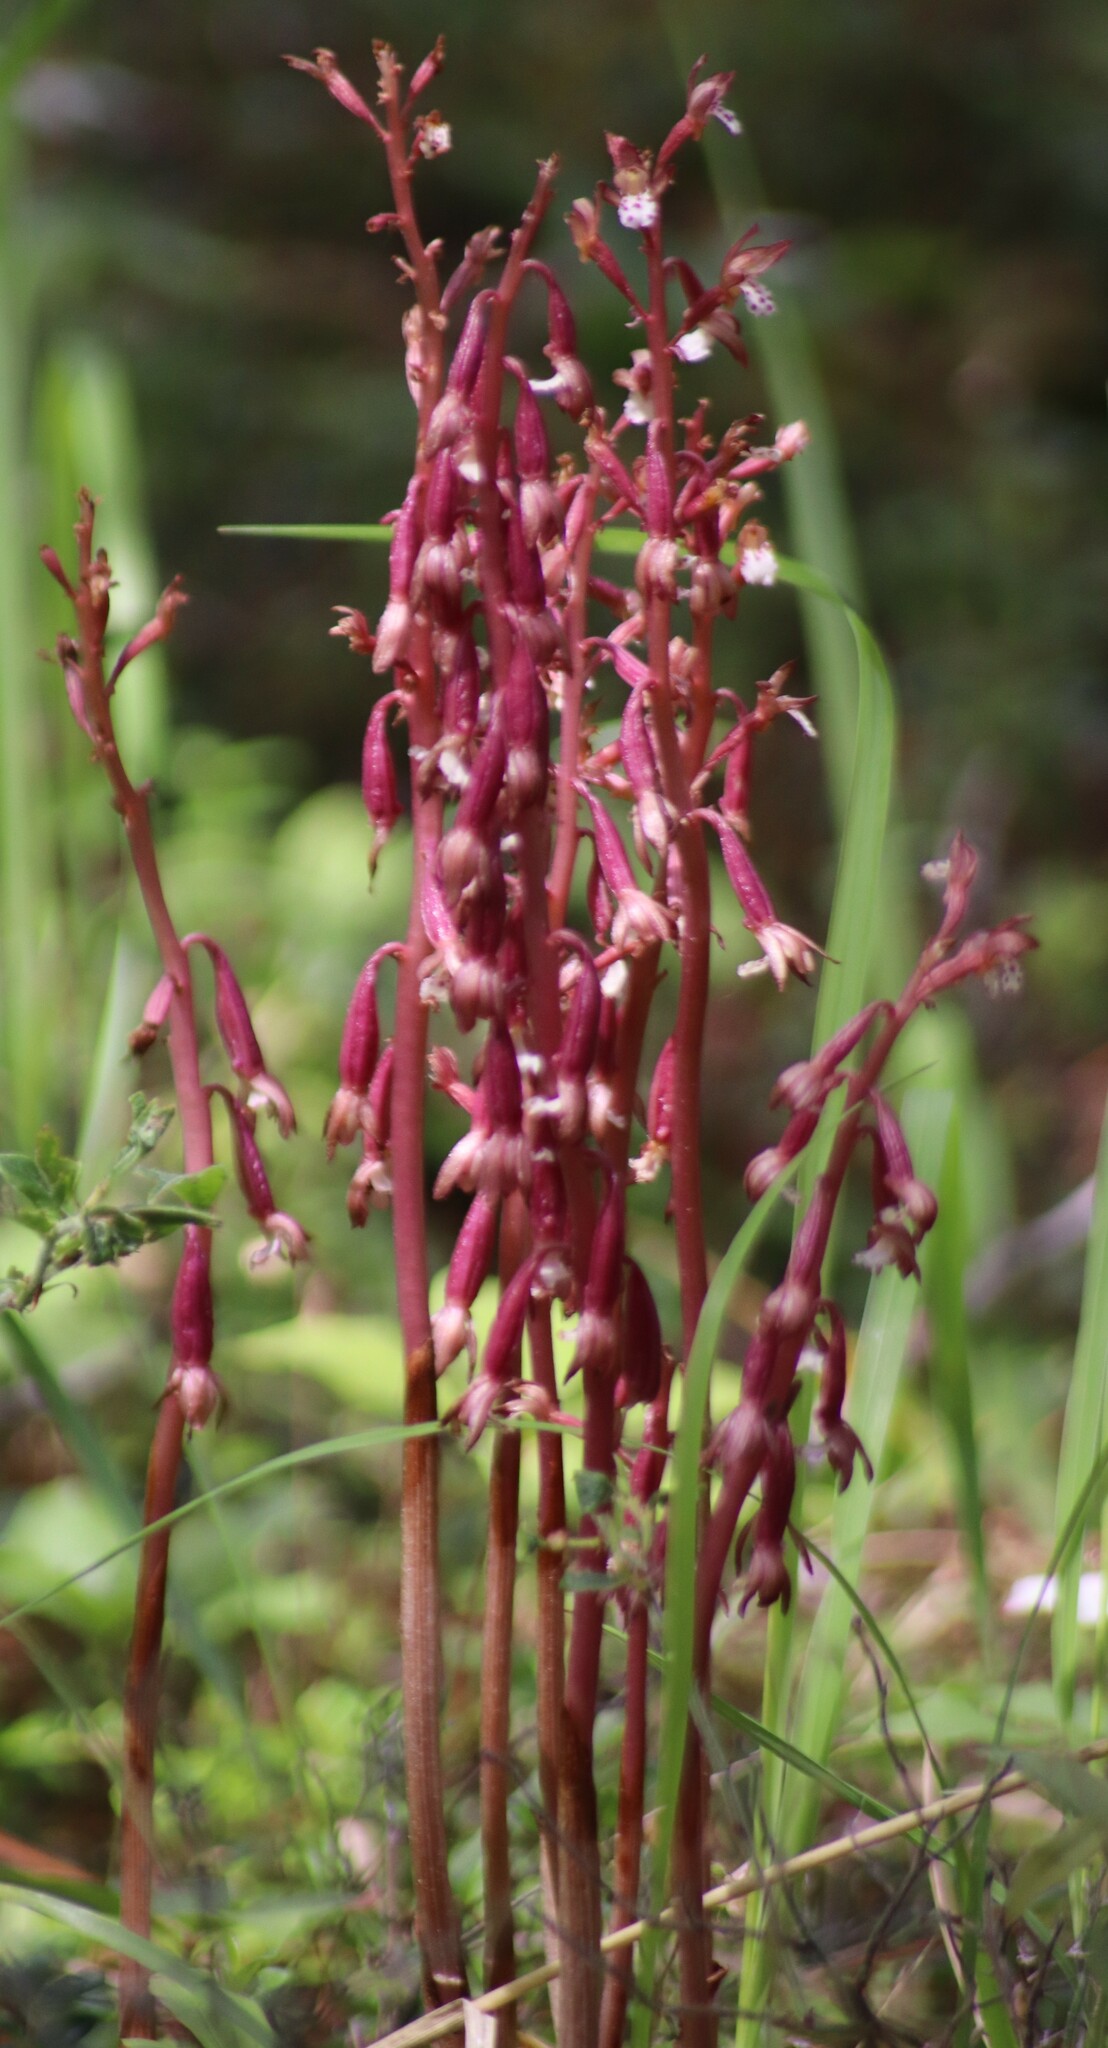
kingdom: Plantae
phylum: Tracheophyta
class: Liliopsida
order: Asparagales
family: Orchidaceae
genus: Corallorhiza
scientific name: Corallorhiza maculata
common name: Spotted coralroot
